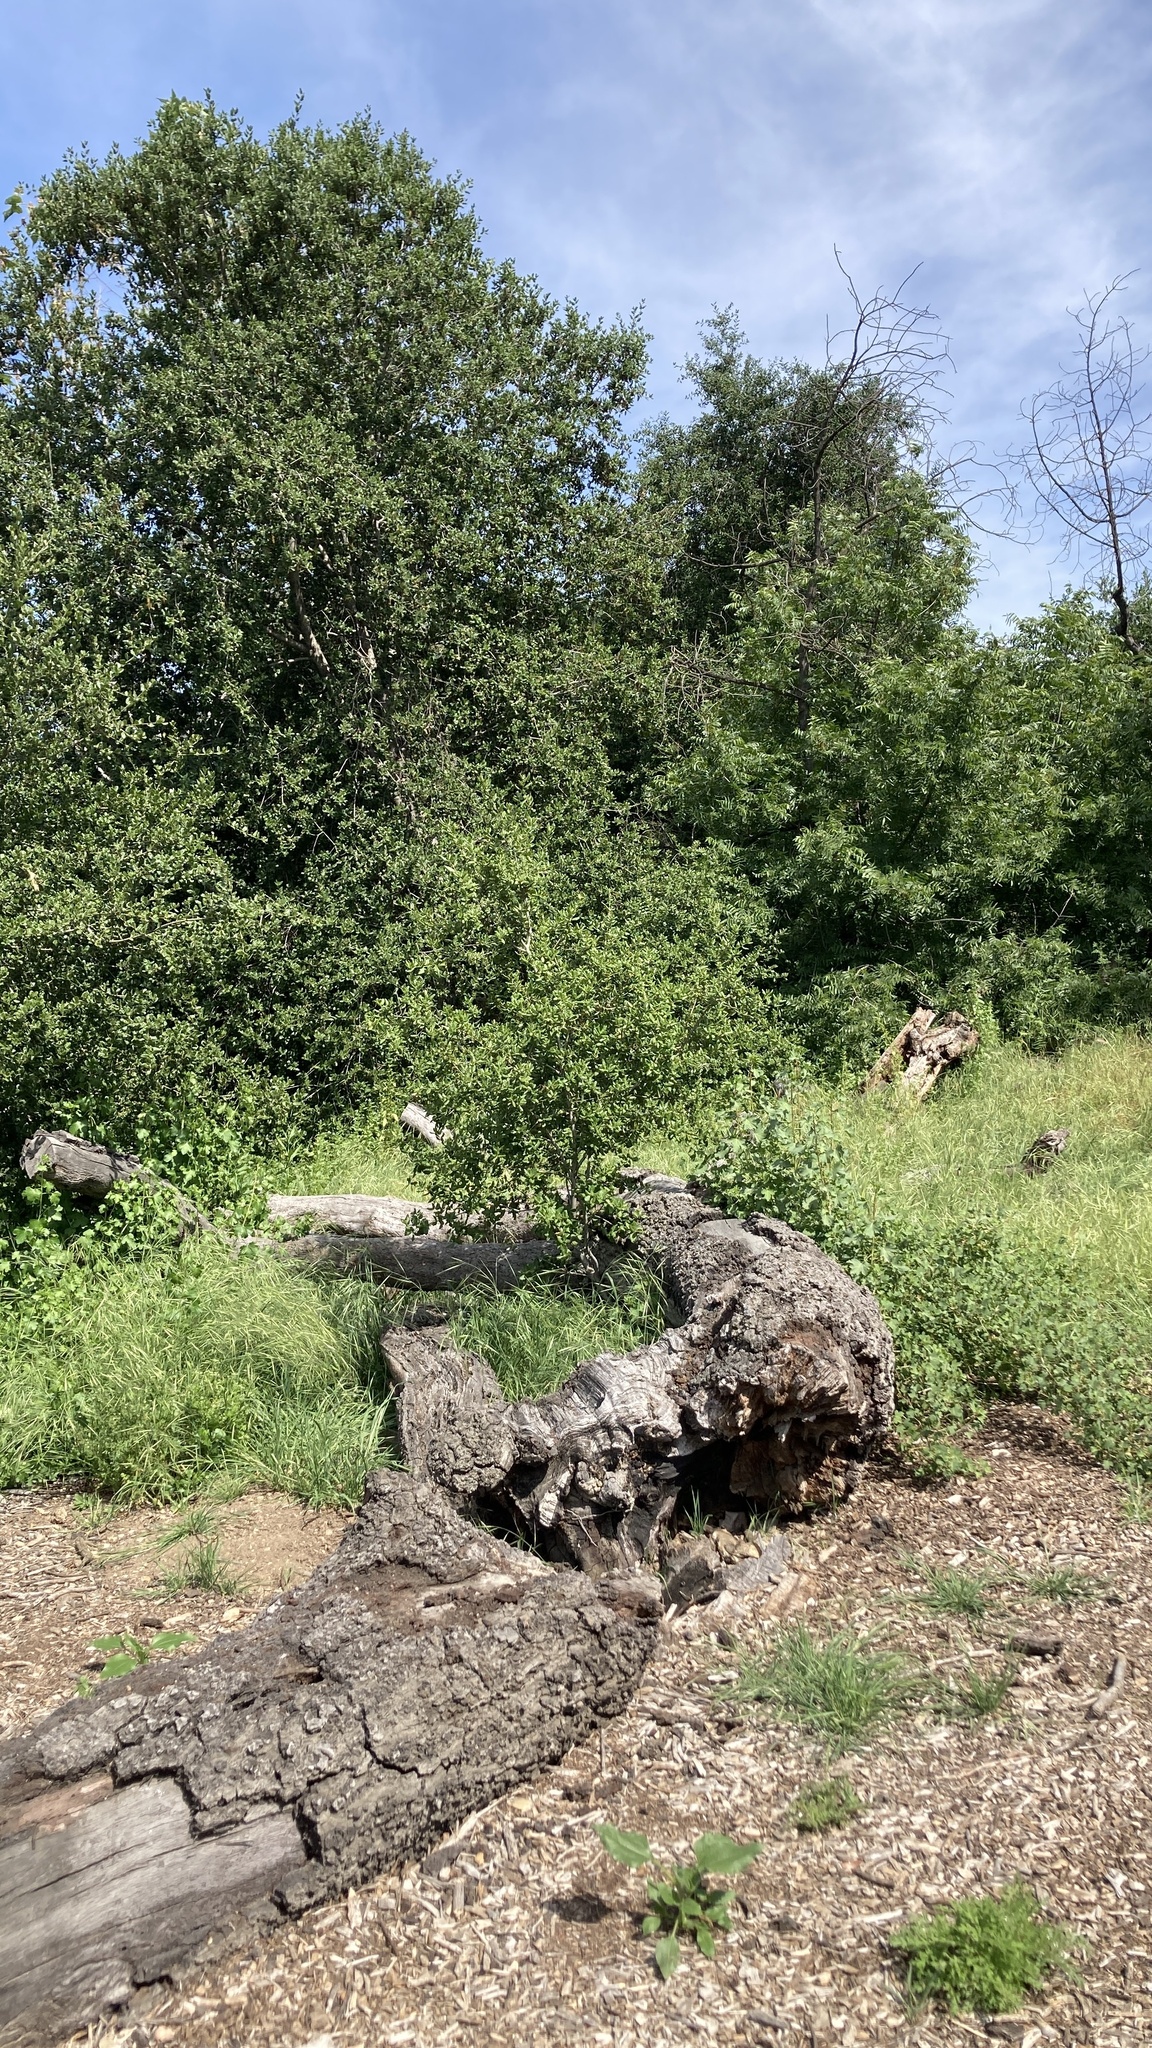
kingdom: Plantae
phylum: Tracheophyta
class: Magnoliopsida
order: Fagales
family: Fagaceae
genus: Quercus
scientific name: Quercus agrifolia
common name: California live oak
